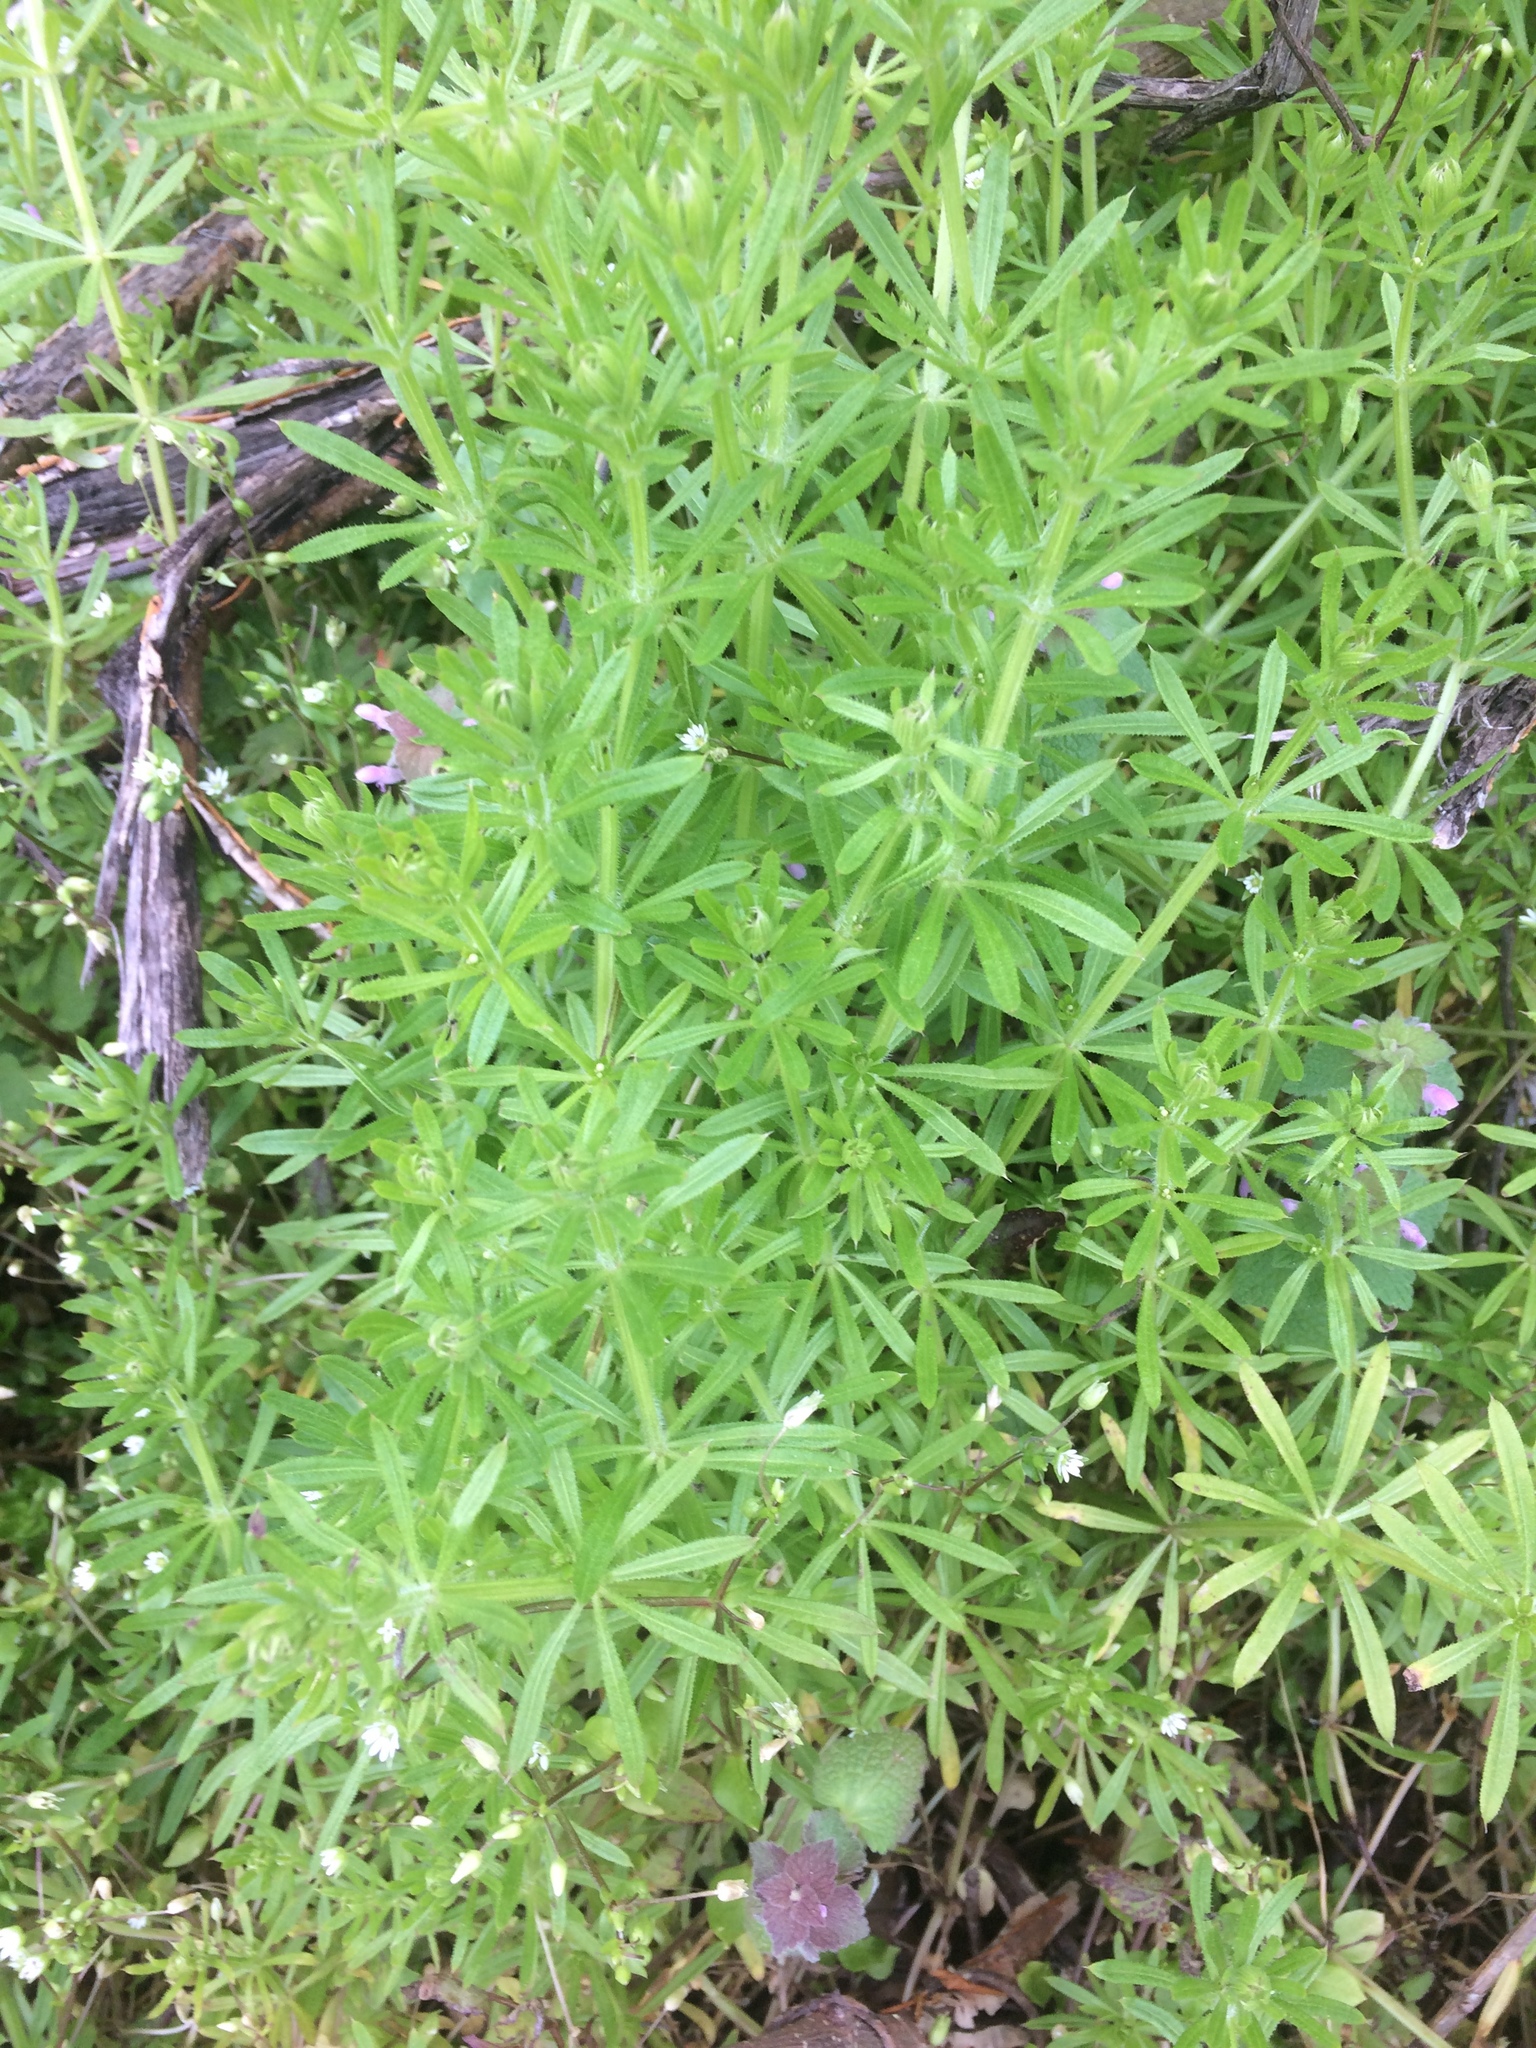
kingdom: Plantae
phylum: Tracheophyta
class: Magnoliopsida
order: Gentianales
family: Rubiaceae
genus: Galium
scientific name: Galium aparine
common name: Cleavers
